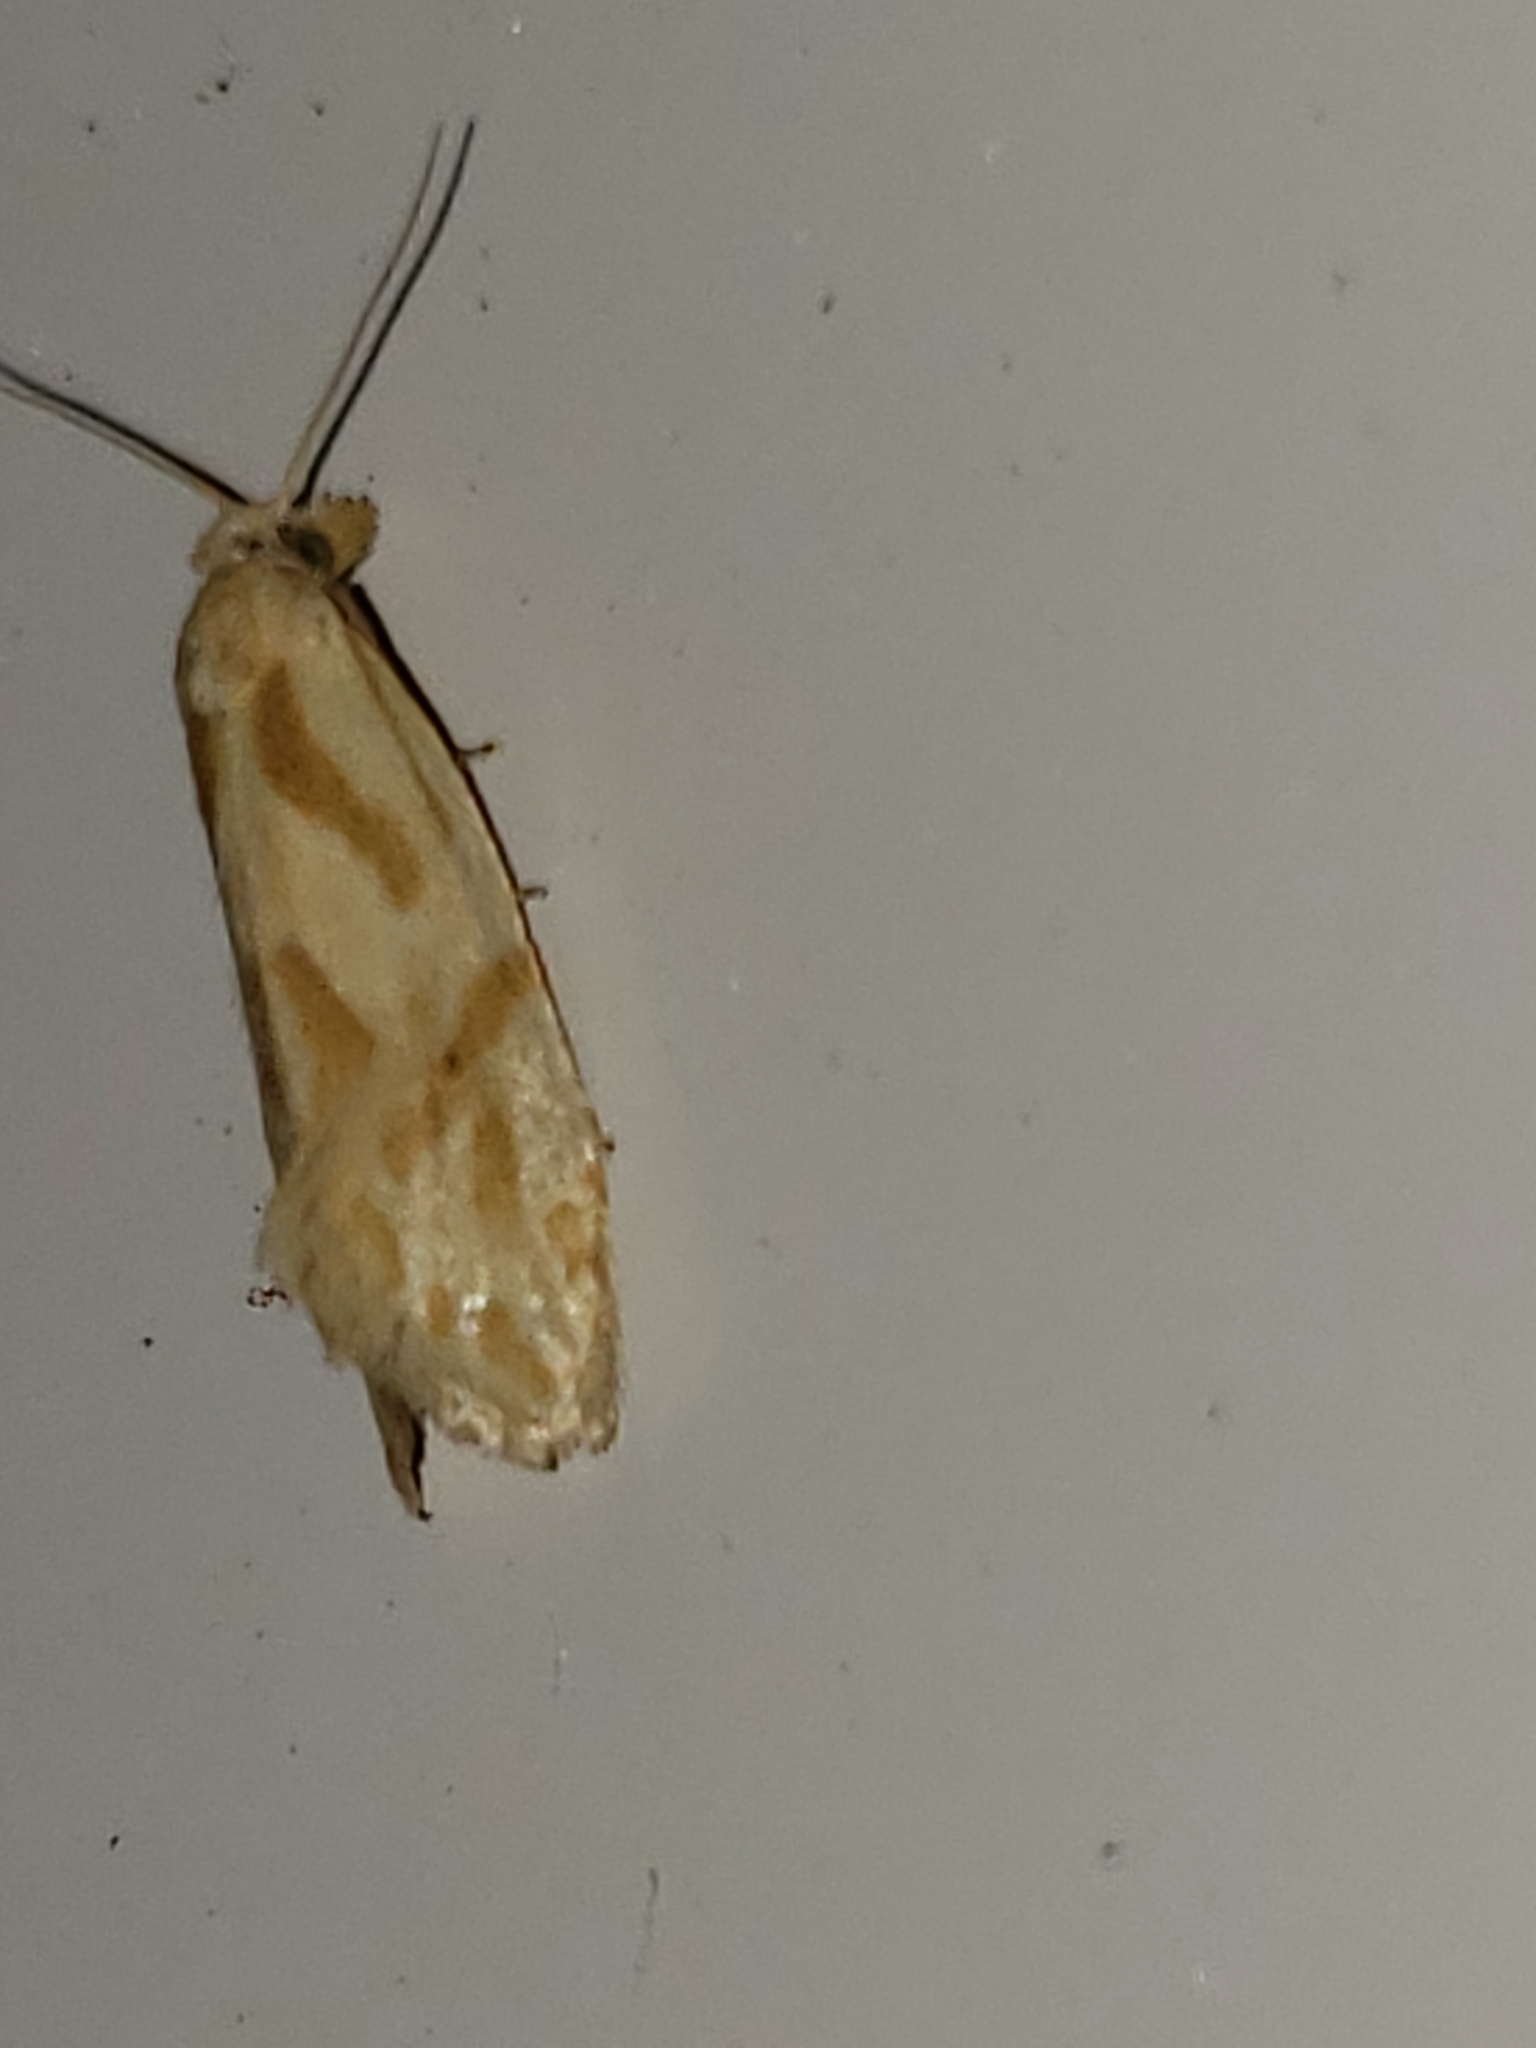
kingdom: Animalia
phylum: Arthropoda
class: Insecta
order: Lepidoptera
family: Tortricidae
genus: Aethes
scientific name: Aethes promptana
